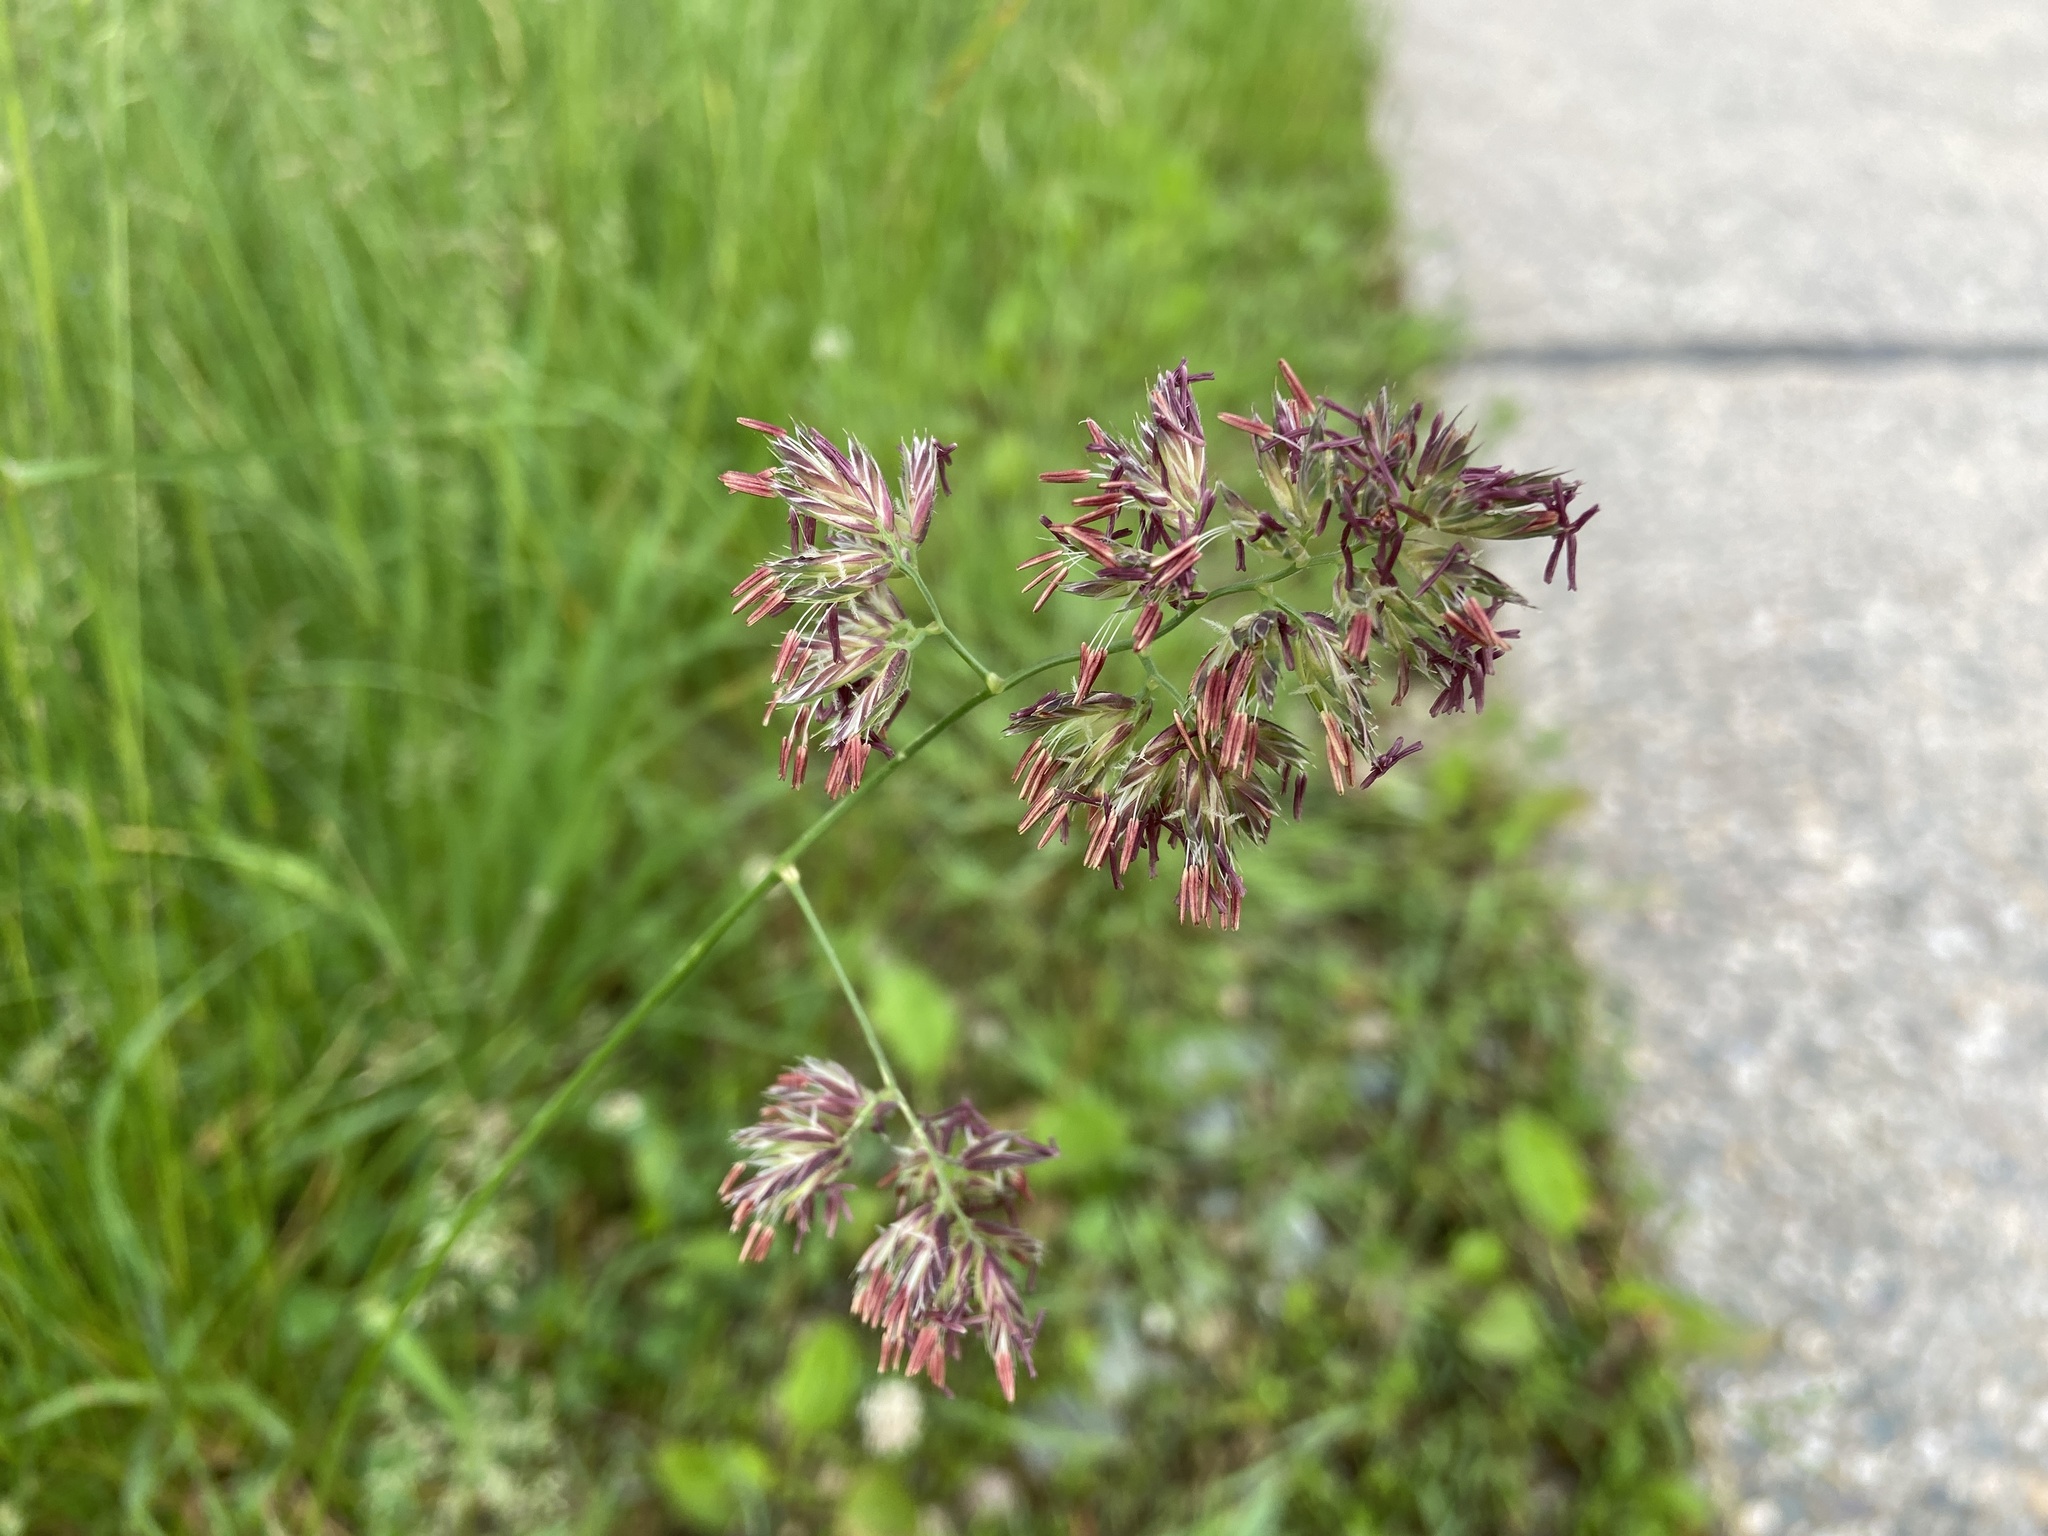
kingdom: Plantae
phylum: Tracheophyta
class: Liliopsida
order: Poales
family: Poaceae
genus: Dactylis
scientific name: Dactylis glomerata
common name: Orchardgrass
